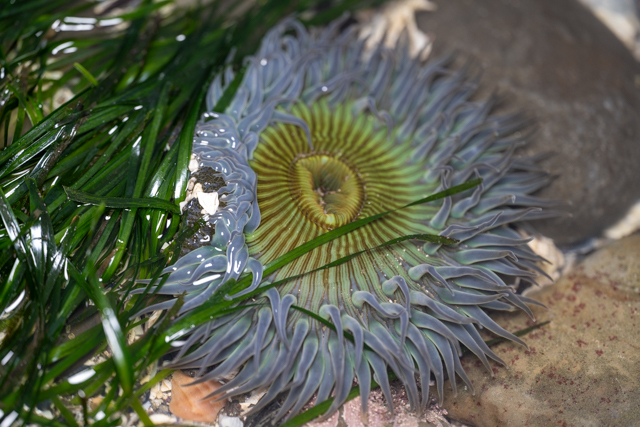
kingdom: Animalia
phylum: Cnidaria
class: Anthozoa
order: Actiniaria
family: Actiniidae
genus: Anthopleura
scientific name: Anthopleura sola
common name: Sun anemone
